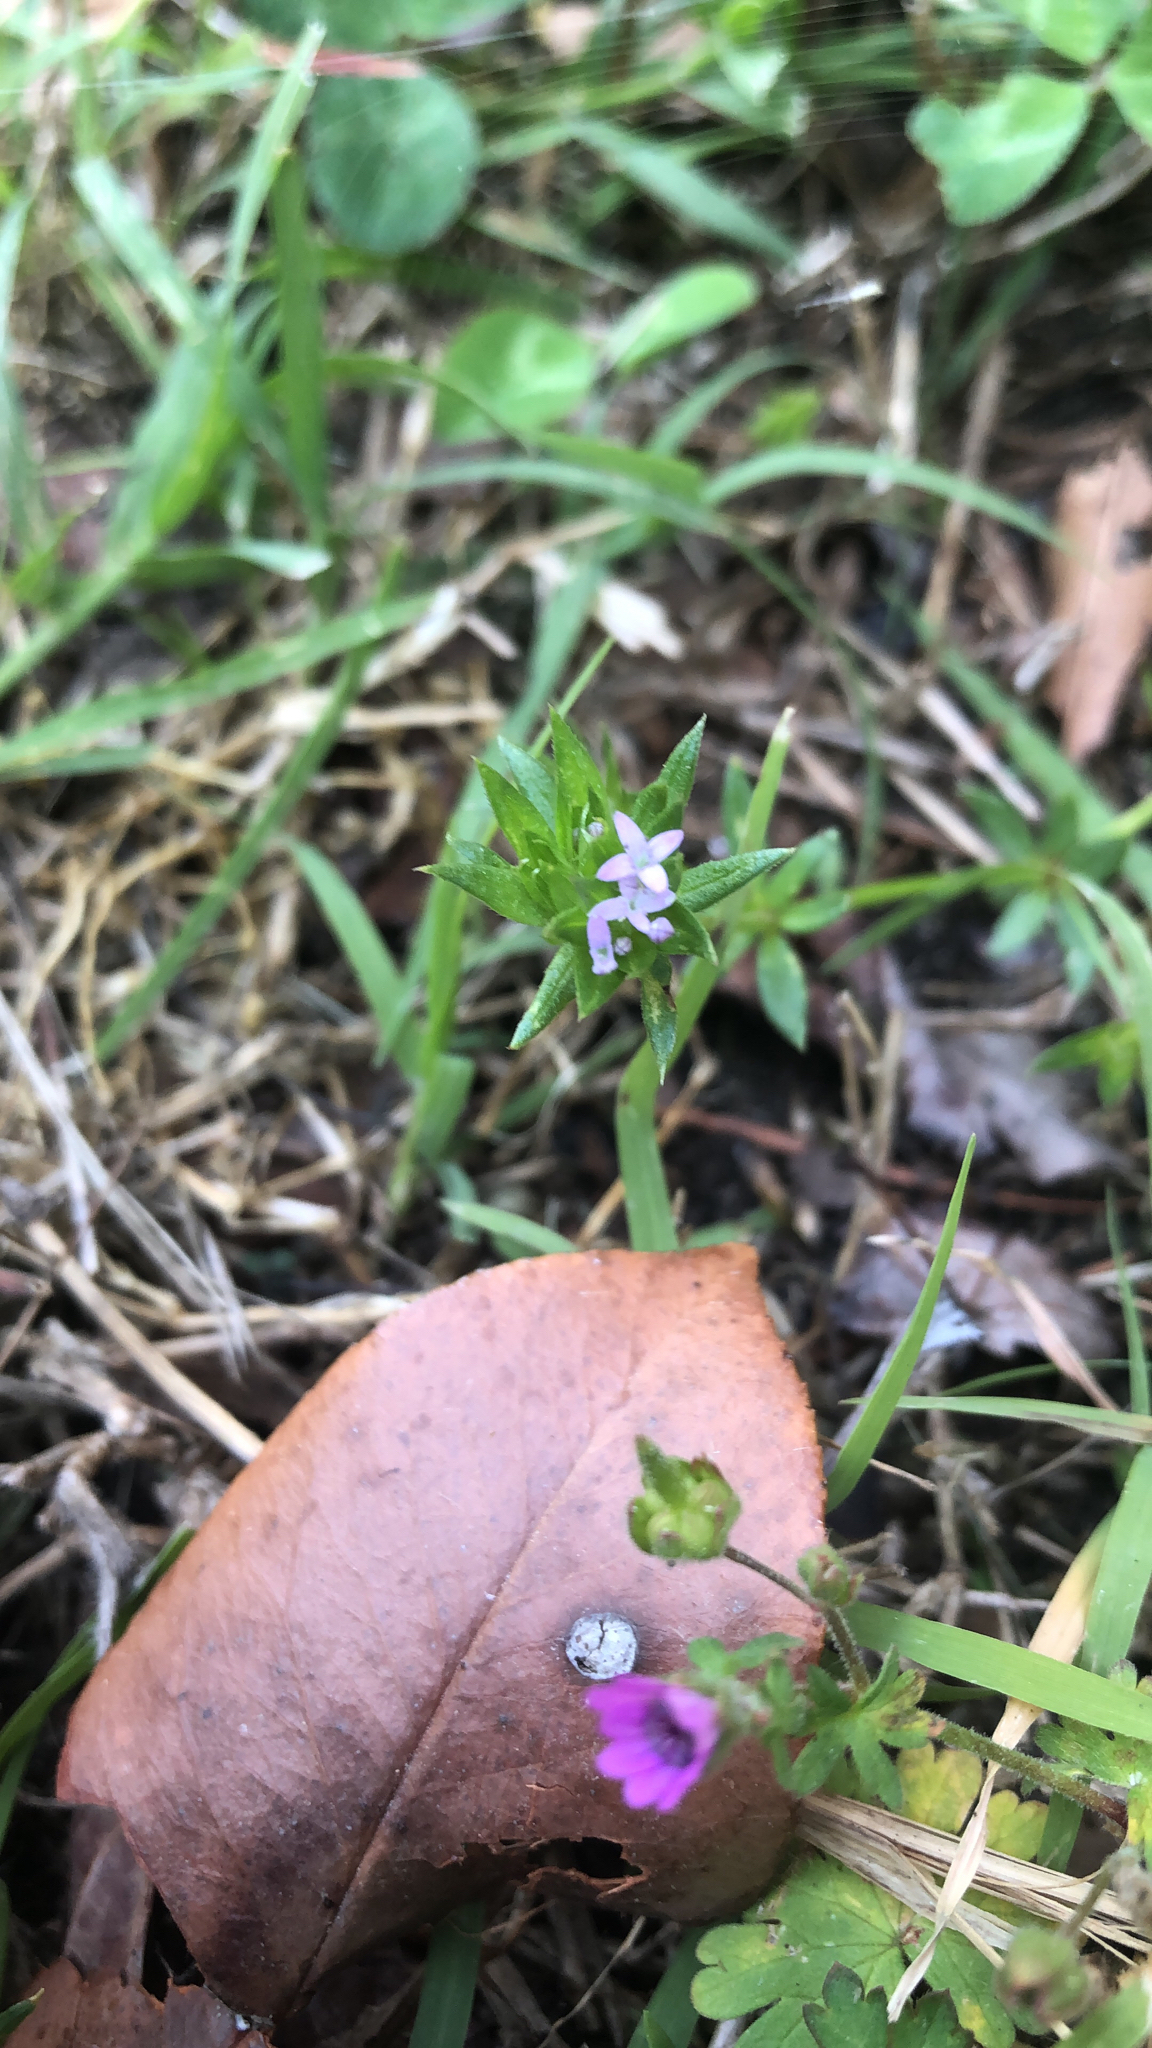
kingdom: Plantae
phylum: Tracheophyta
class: Magnoliopsida
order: Gentianales
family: Rubiaceae
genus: Sherardia
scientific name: Sherardia arvensis
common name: Field madder
